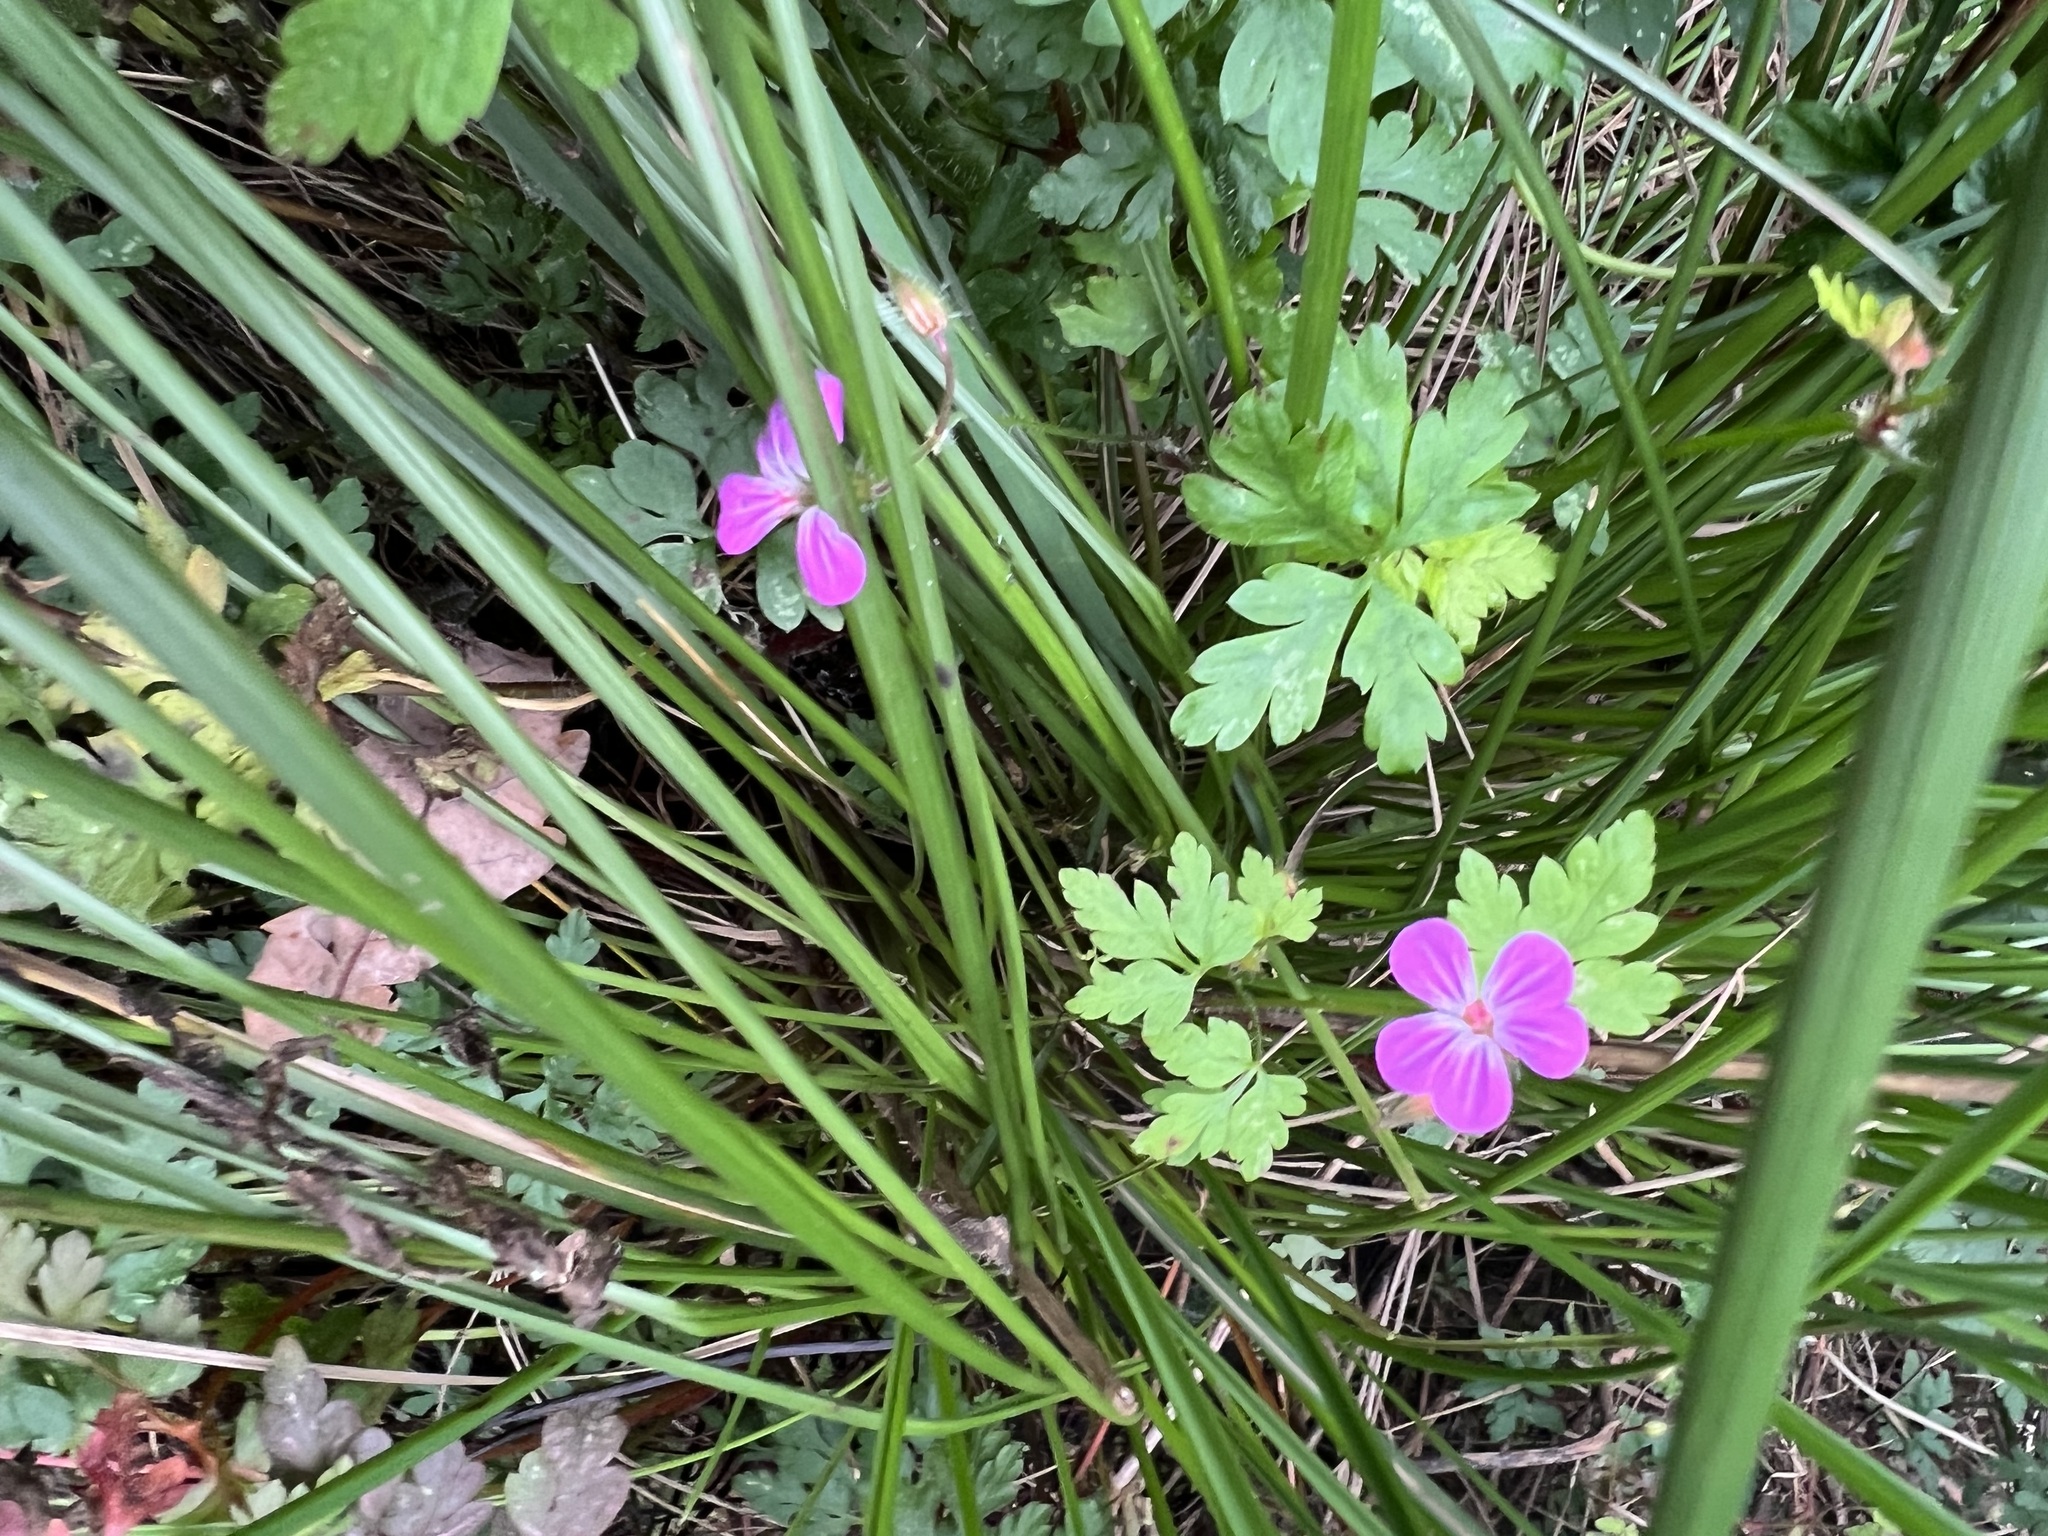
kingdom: Plantae
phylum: Tracheophyta
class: Magnoliopsida
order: Geraniales
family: Geraniaceae
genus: Geranium
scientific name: Geranium robertianum
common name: Herb-robert
